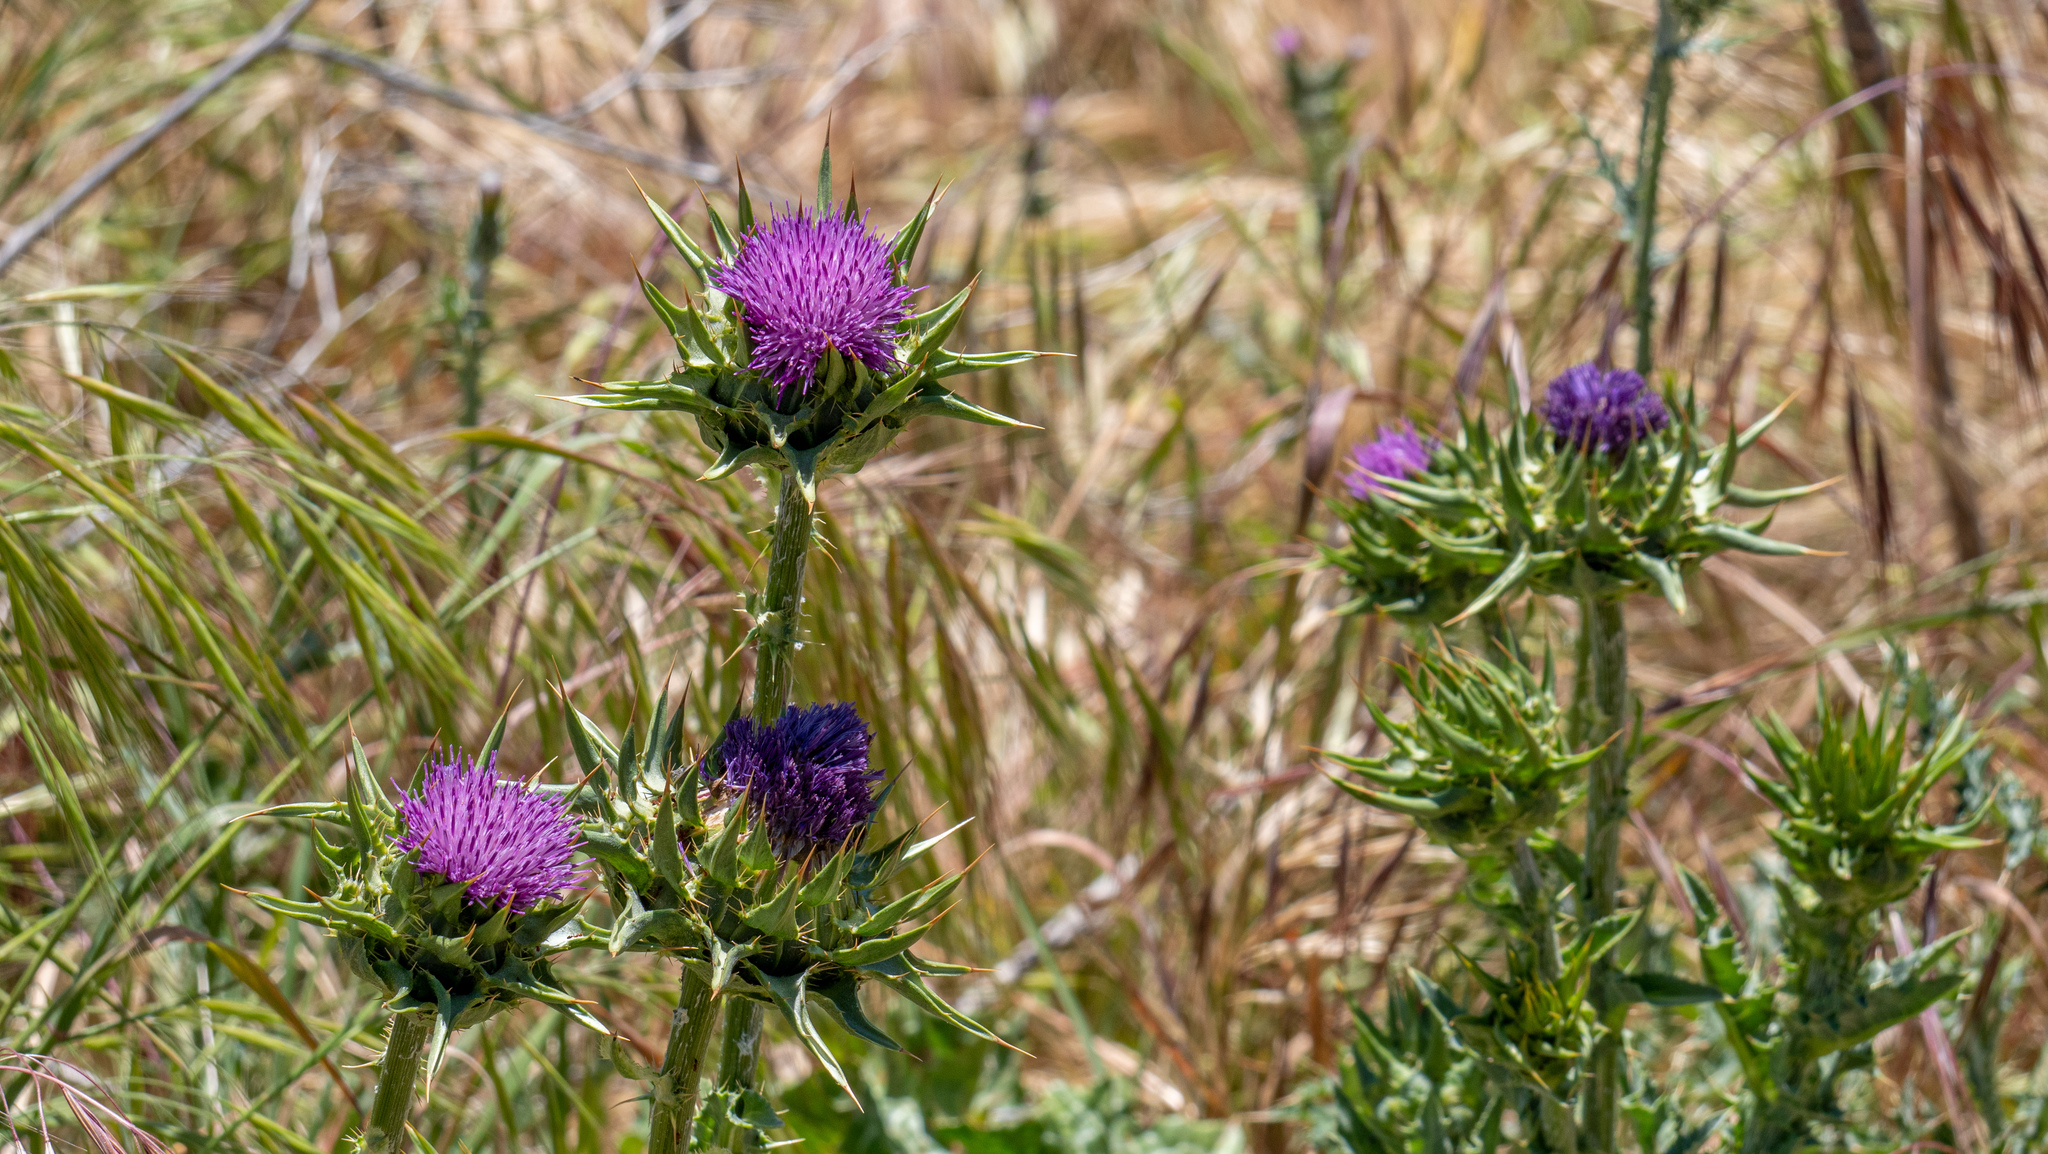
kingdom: Plantae
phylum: Tracheophyta
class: Magnoliopsida
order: Asterales
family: Asteraceae
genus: Silybum
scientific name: Silybum marianum
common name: Milk thistle
